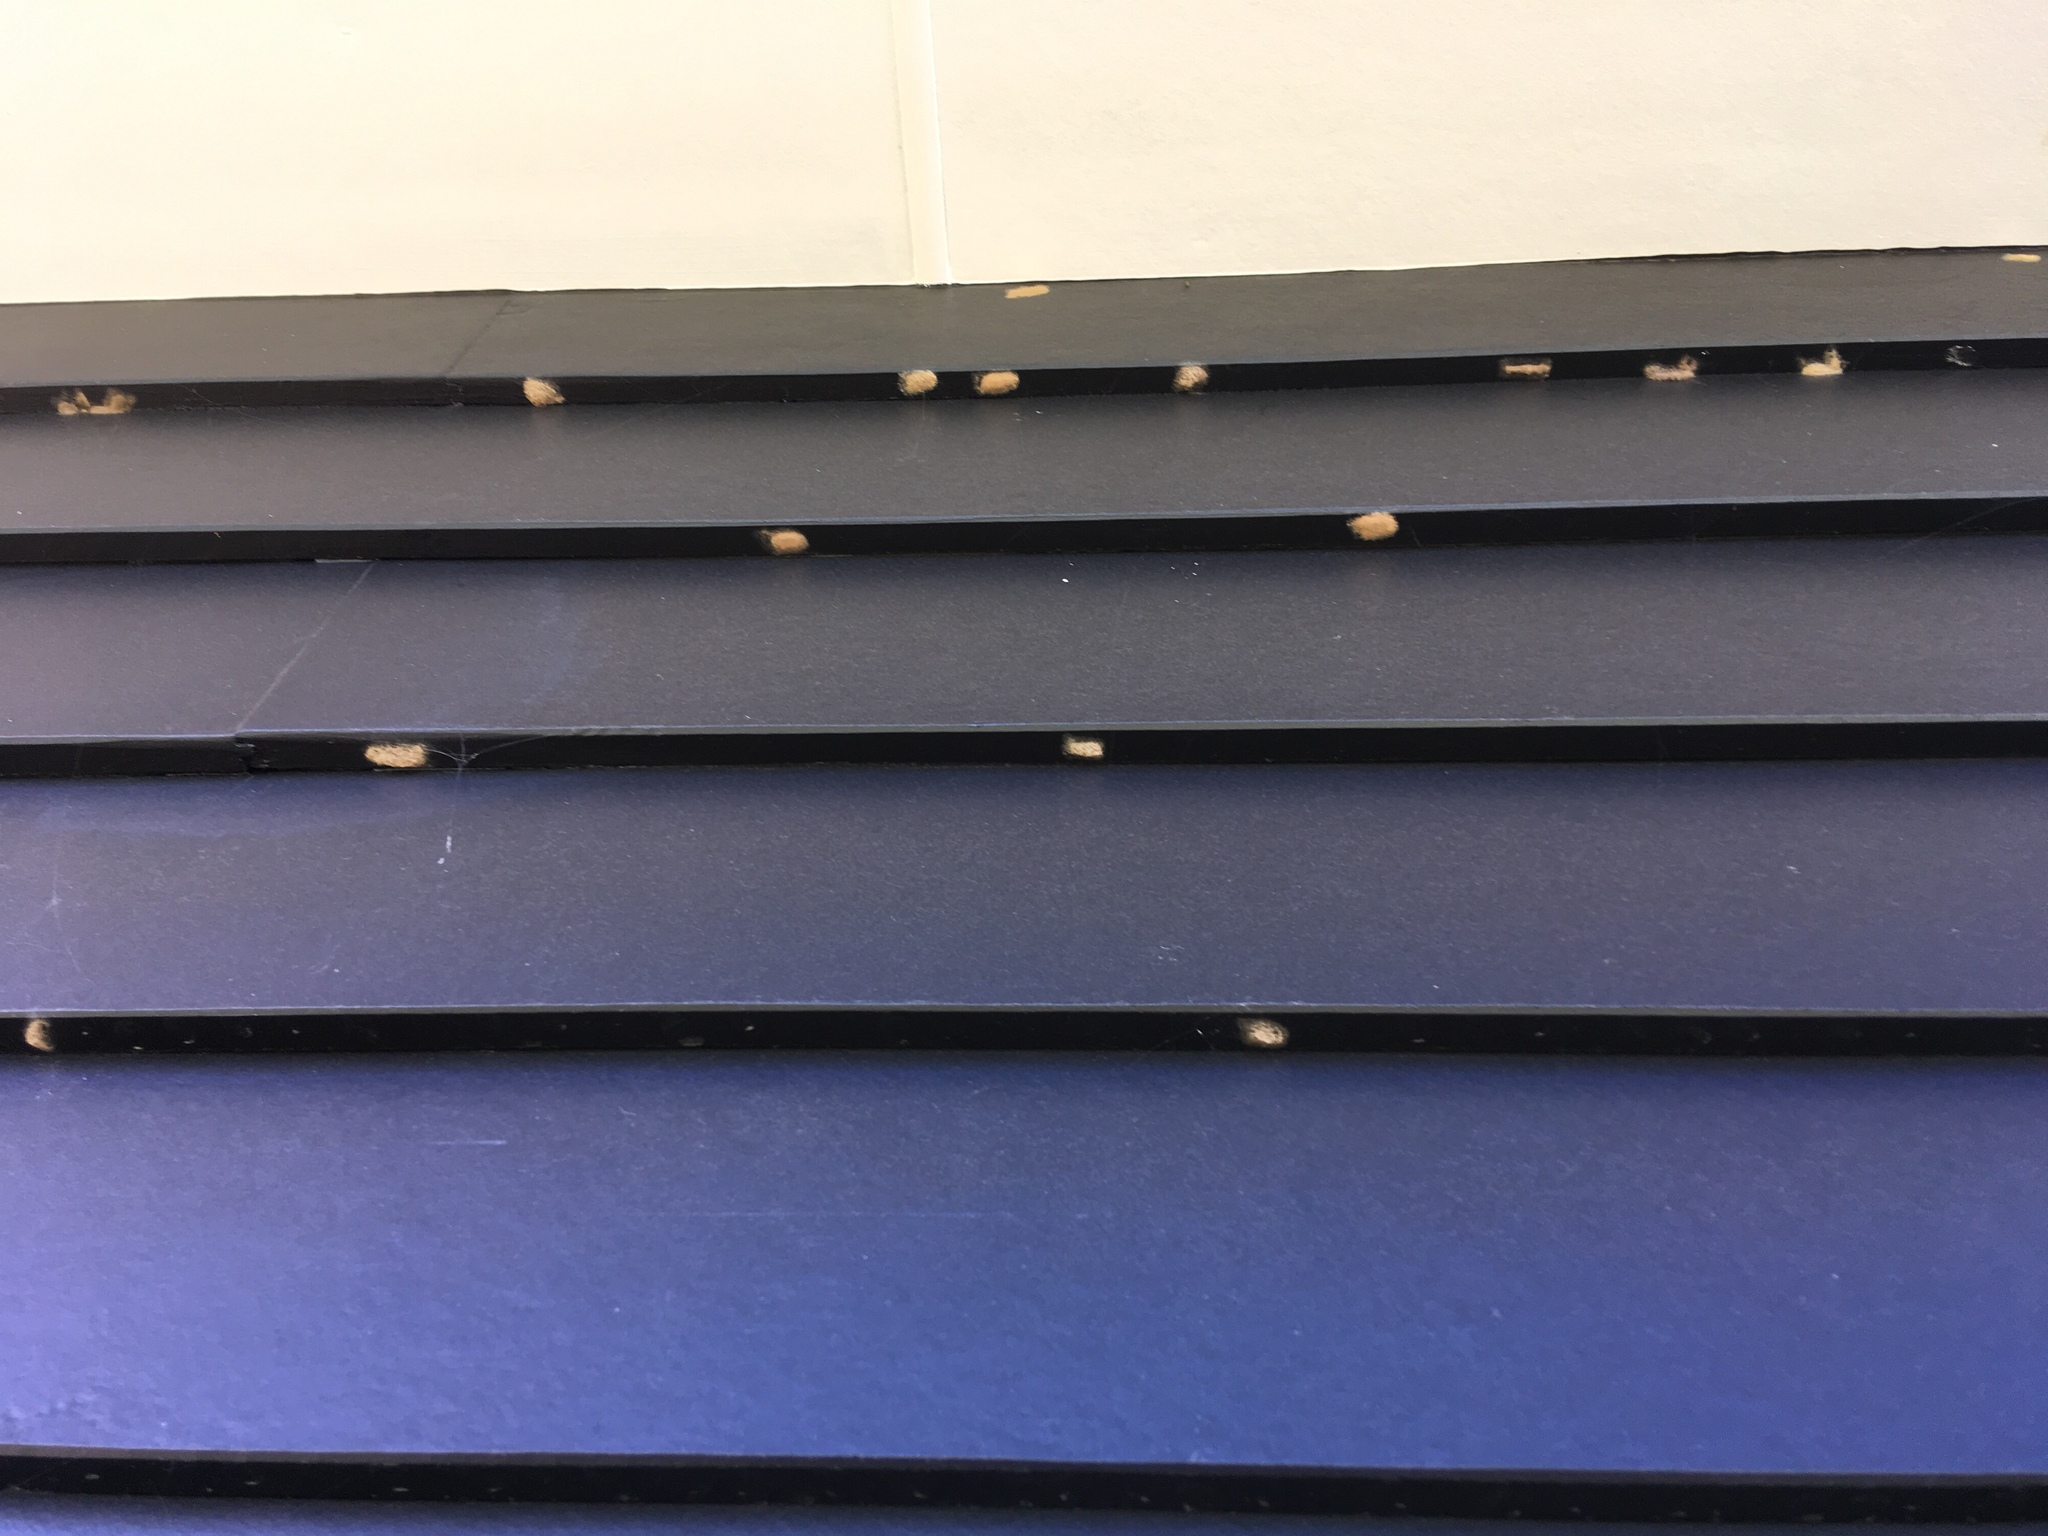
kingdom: Animalia
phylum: Arthropoda
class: Insecta
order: Lepidoptera
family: Noctuidae
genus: Spodoptera
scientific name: Spodoptera litura
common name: Asian cotton leafworm
